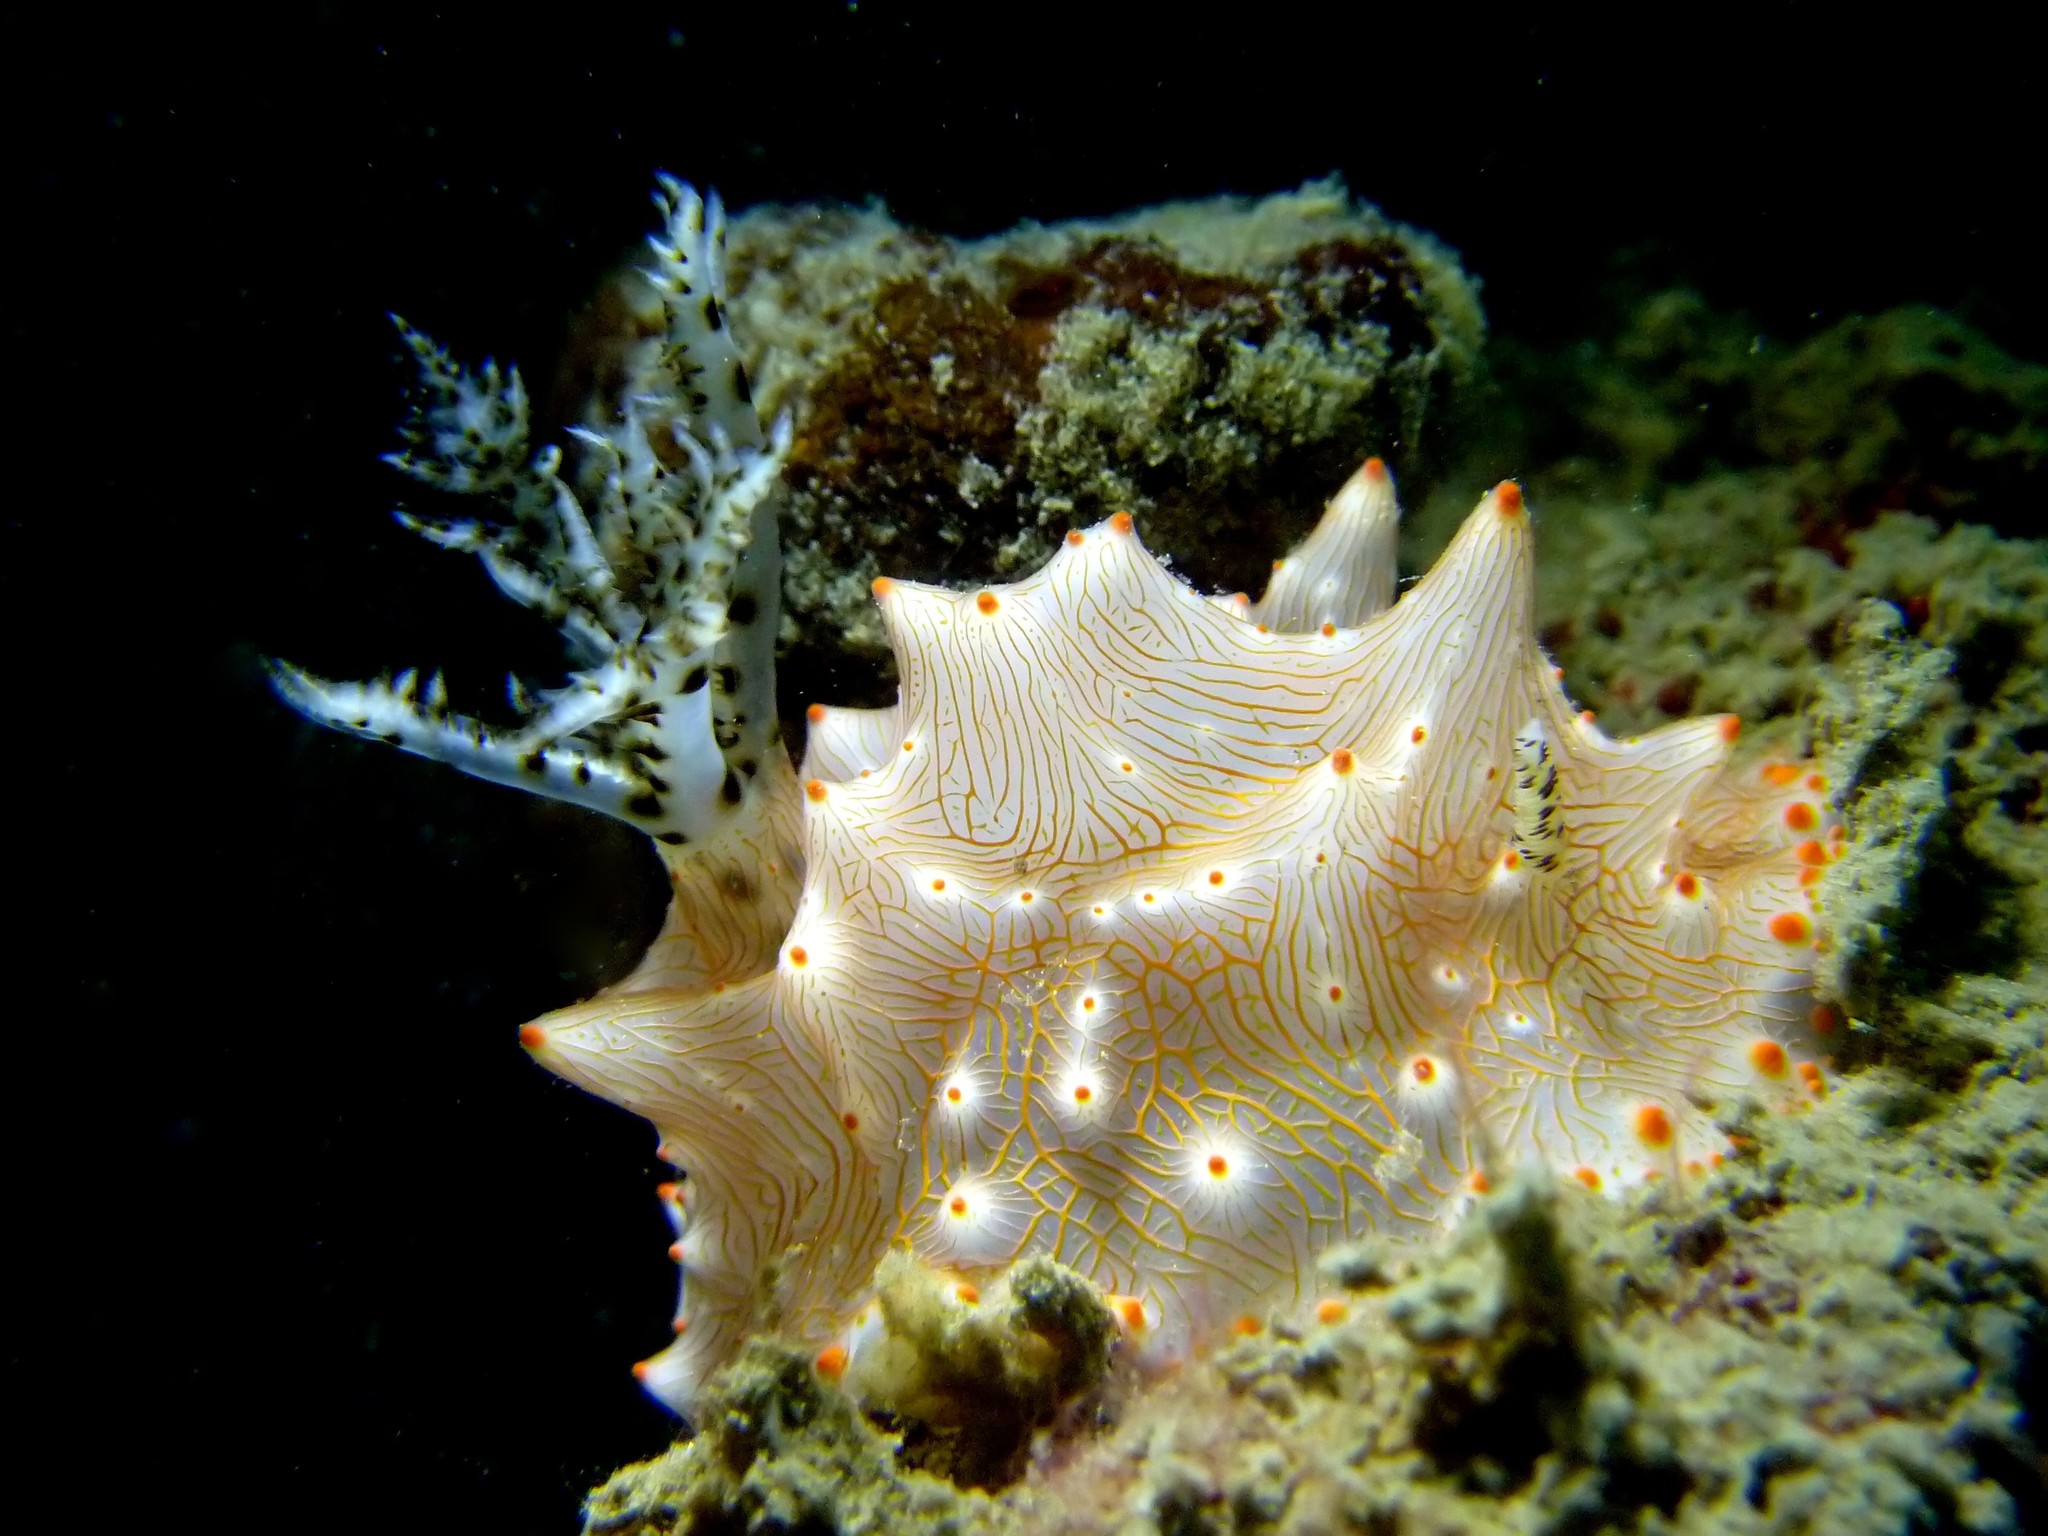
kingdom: Animalia
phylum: Mollusca
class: Gastropoda
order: Nudibranchia
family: Discodorididae
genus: Halgerda
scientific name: Halgerda batangas
